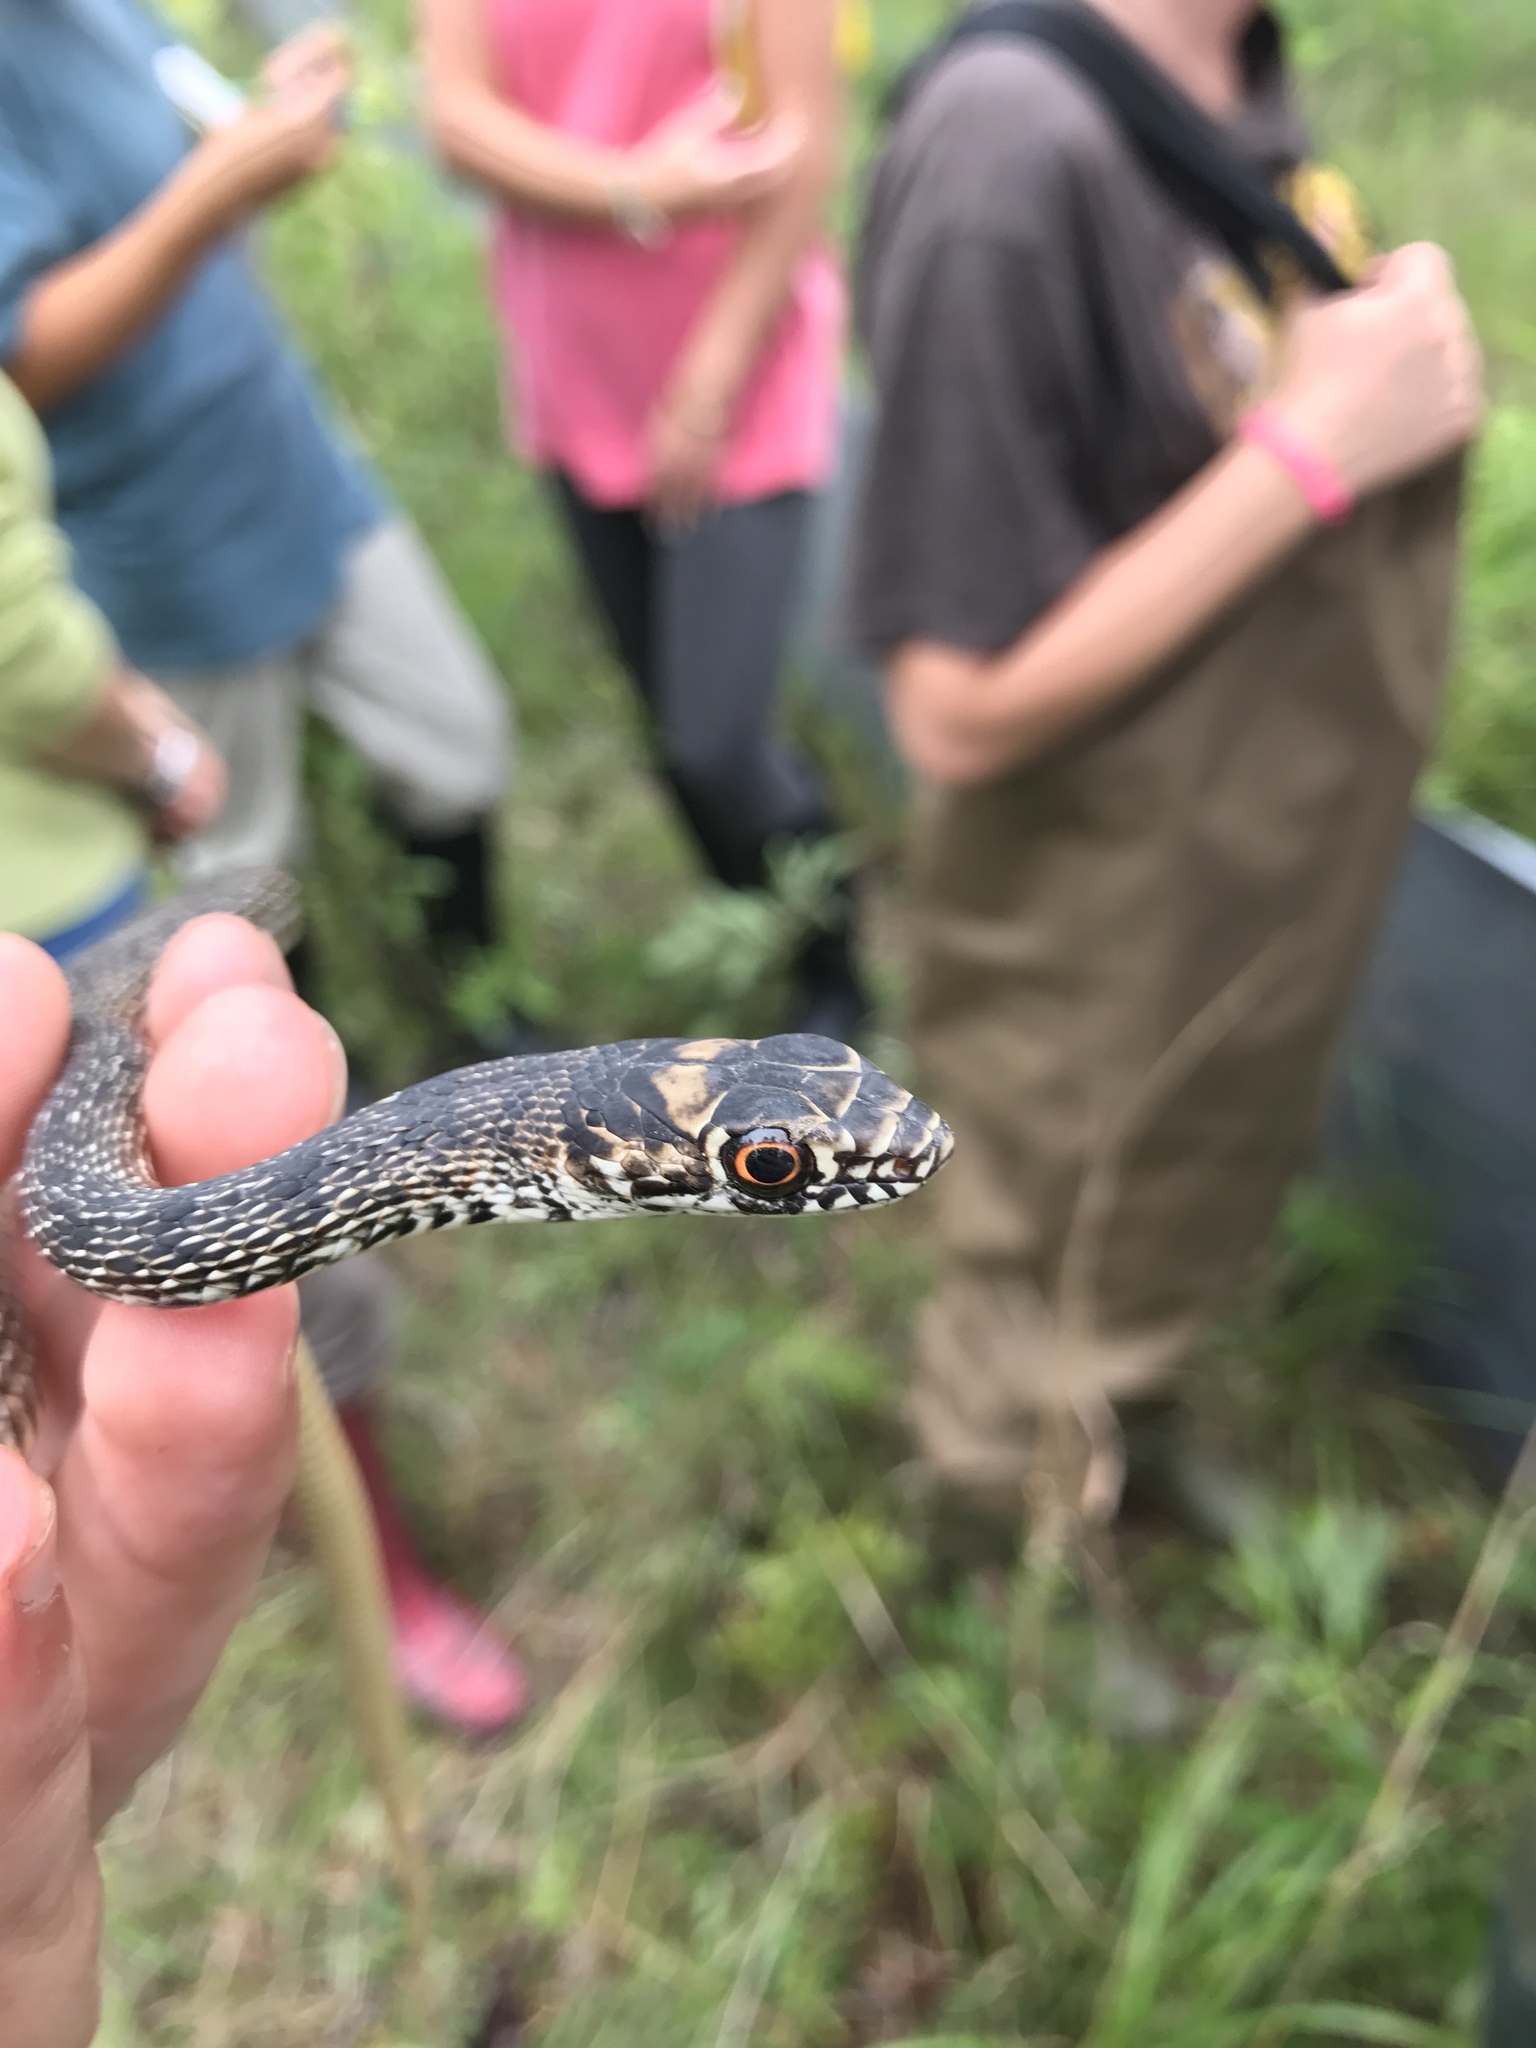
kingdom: Animalia
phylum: Chordata
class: Squamata
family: Colubridae
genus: Masticophis
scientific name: Masticophis flagellum
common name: Coachwhip
